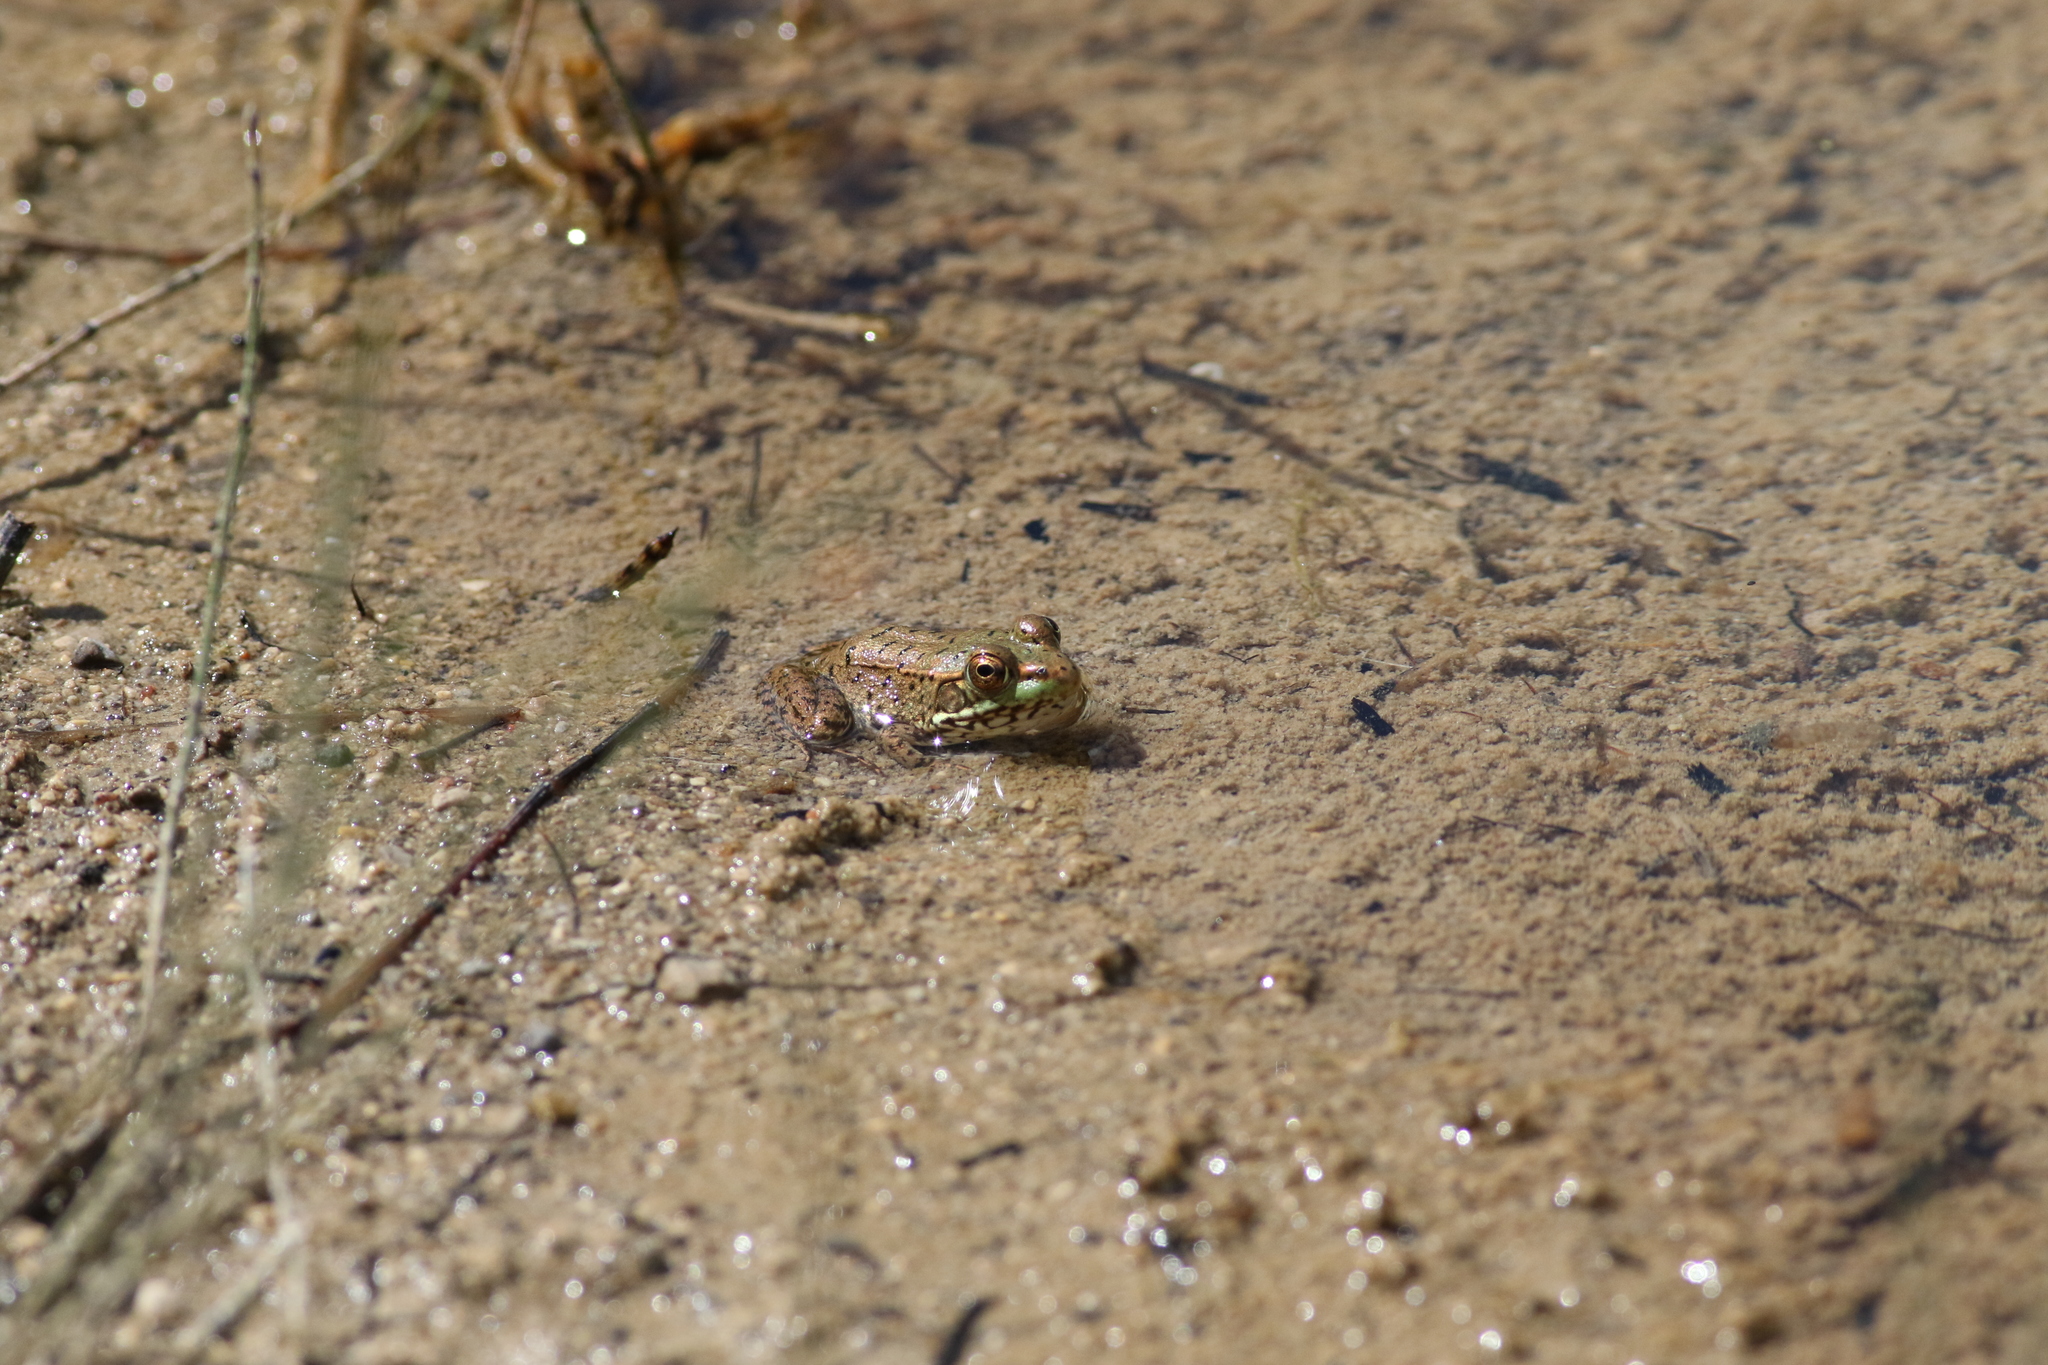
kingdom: Animalia
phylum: Chordata
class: Amphibia
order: Anura
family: Ranidae
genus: Lithobates
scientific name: Lithobates clamitans
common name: Green frog
